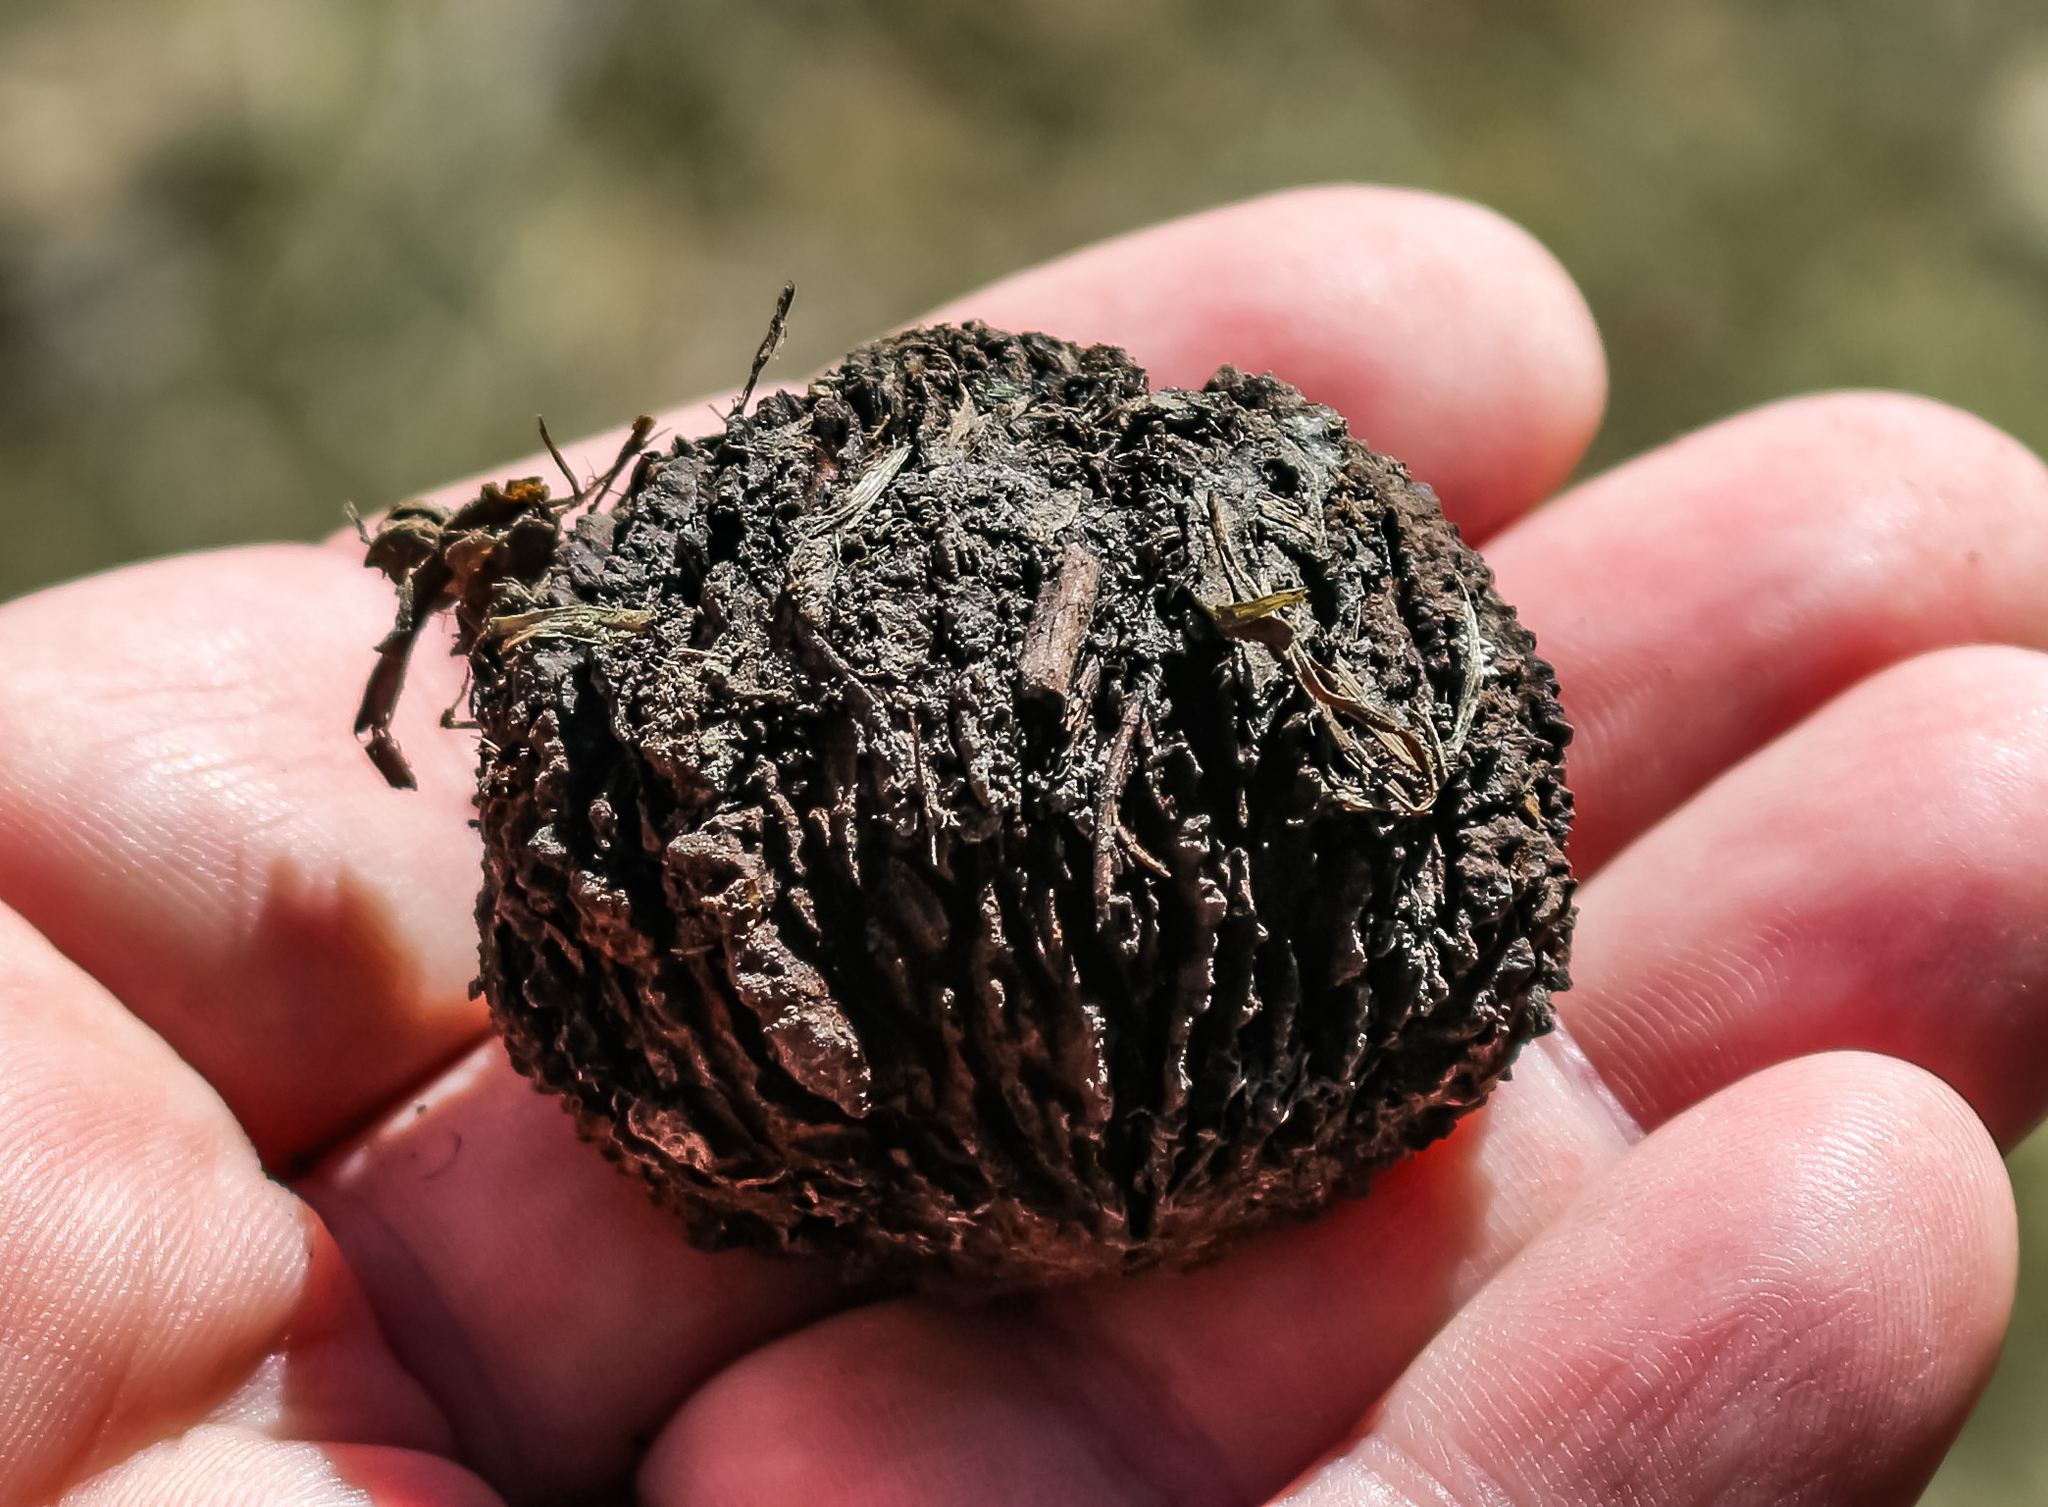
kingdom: Plantae
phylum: Tracheophyta
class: Magnoliopsida
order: Fagales
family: Juglandaceae
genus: Juglans
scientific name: Juglans nigra
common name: Black walnut
